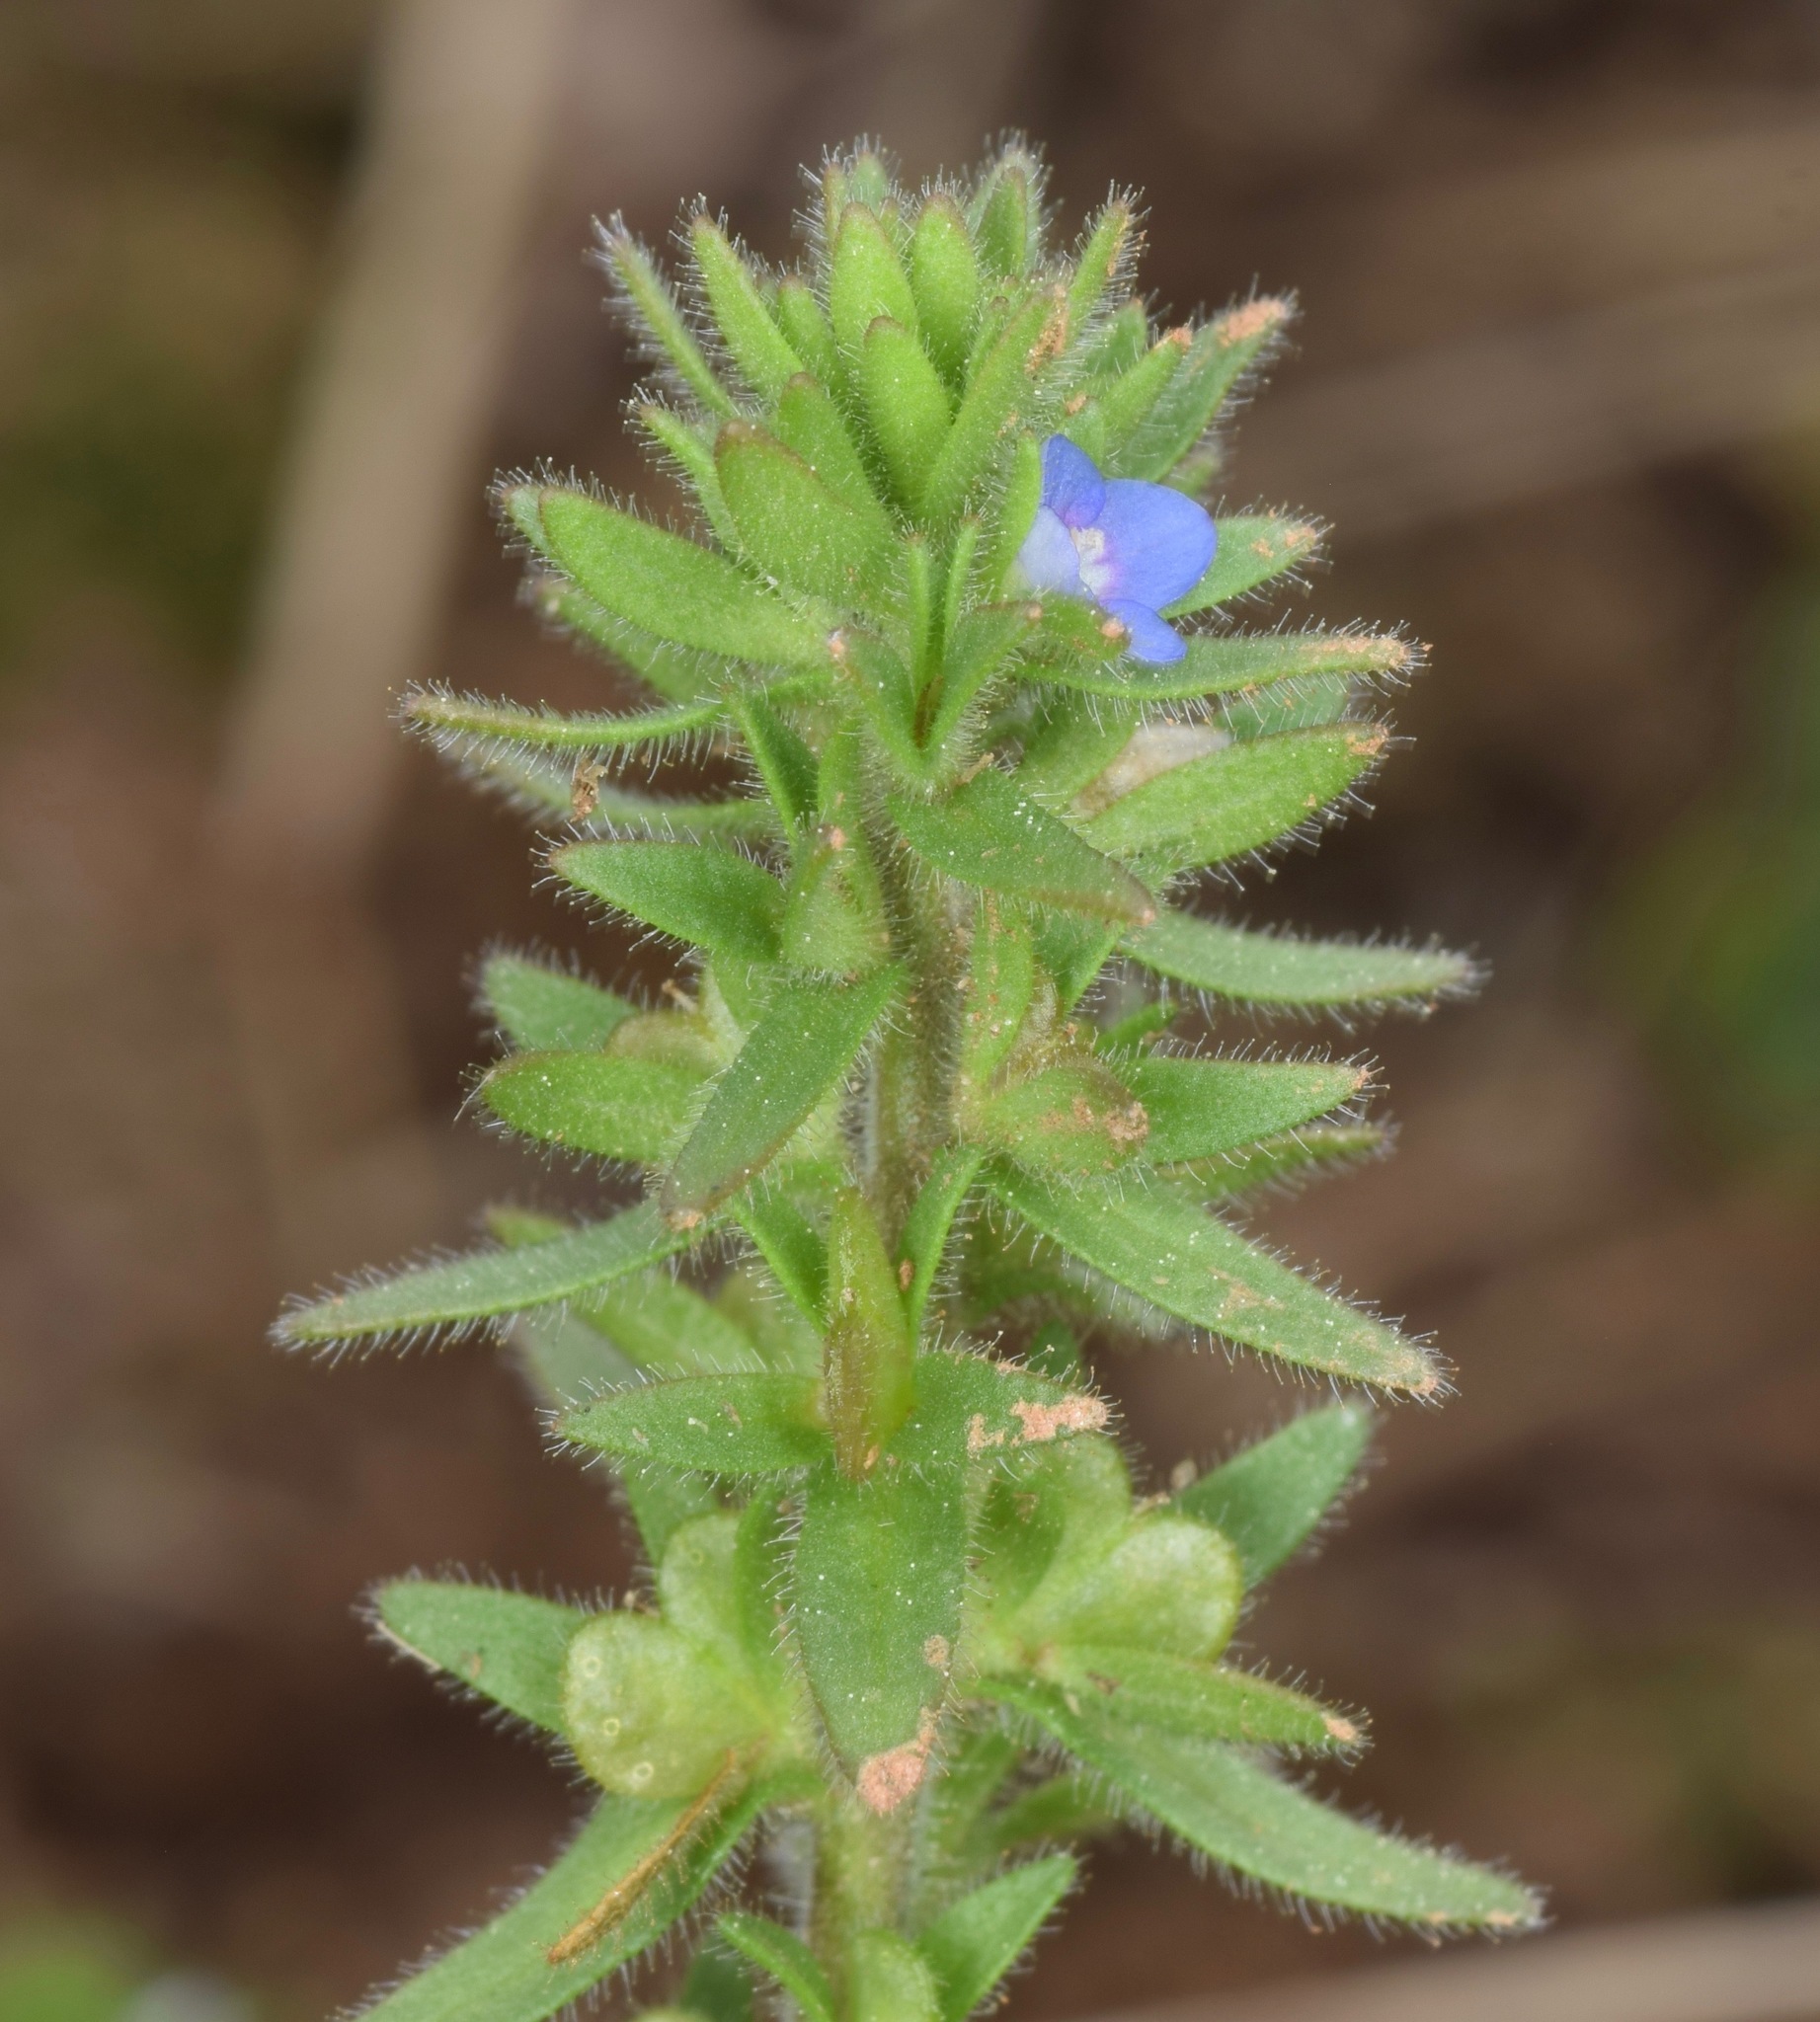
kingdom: Plantae
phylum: Tracheophyta
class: Magnoliopsida
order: Lamiales
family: Plantaginaceae
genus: Veronica
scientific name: Veronica arvensis
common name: Corn speedwell
